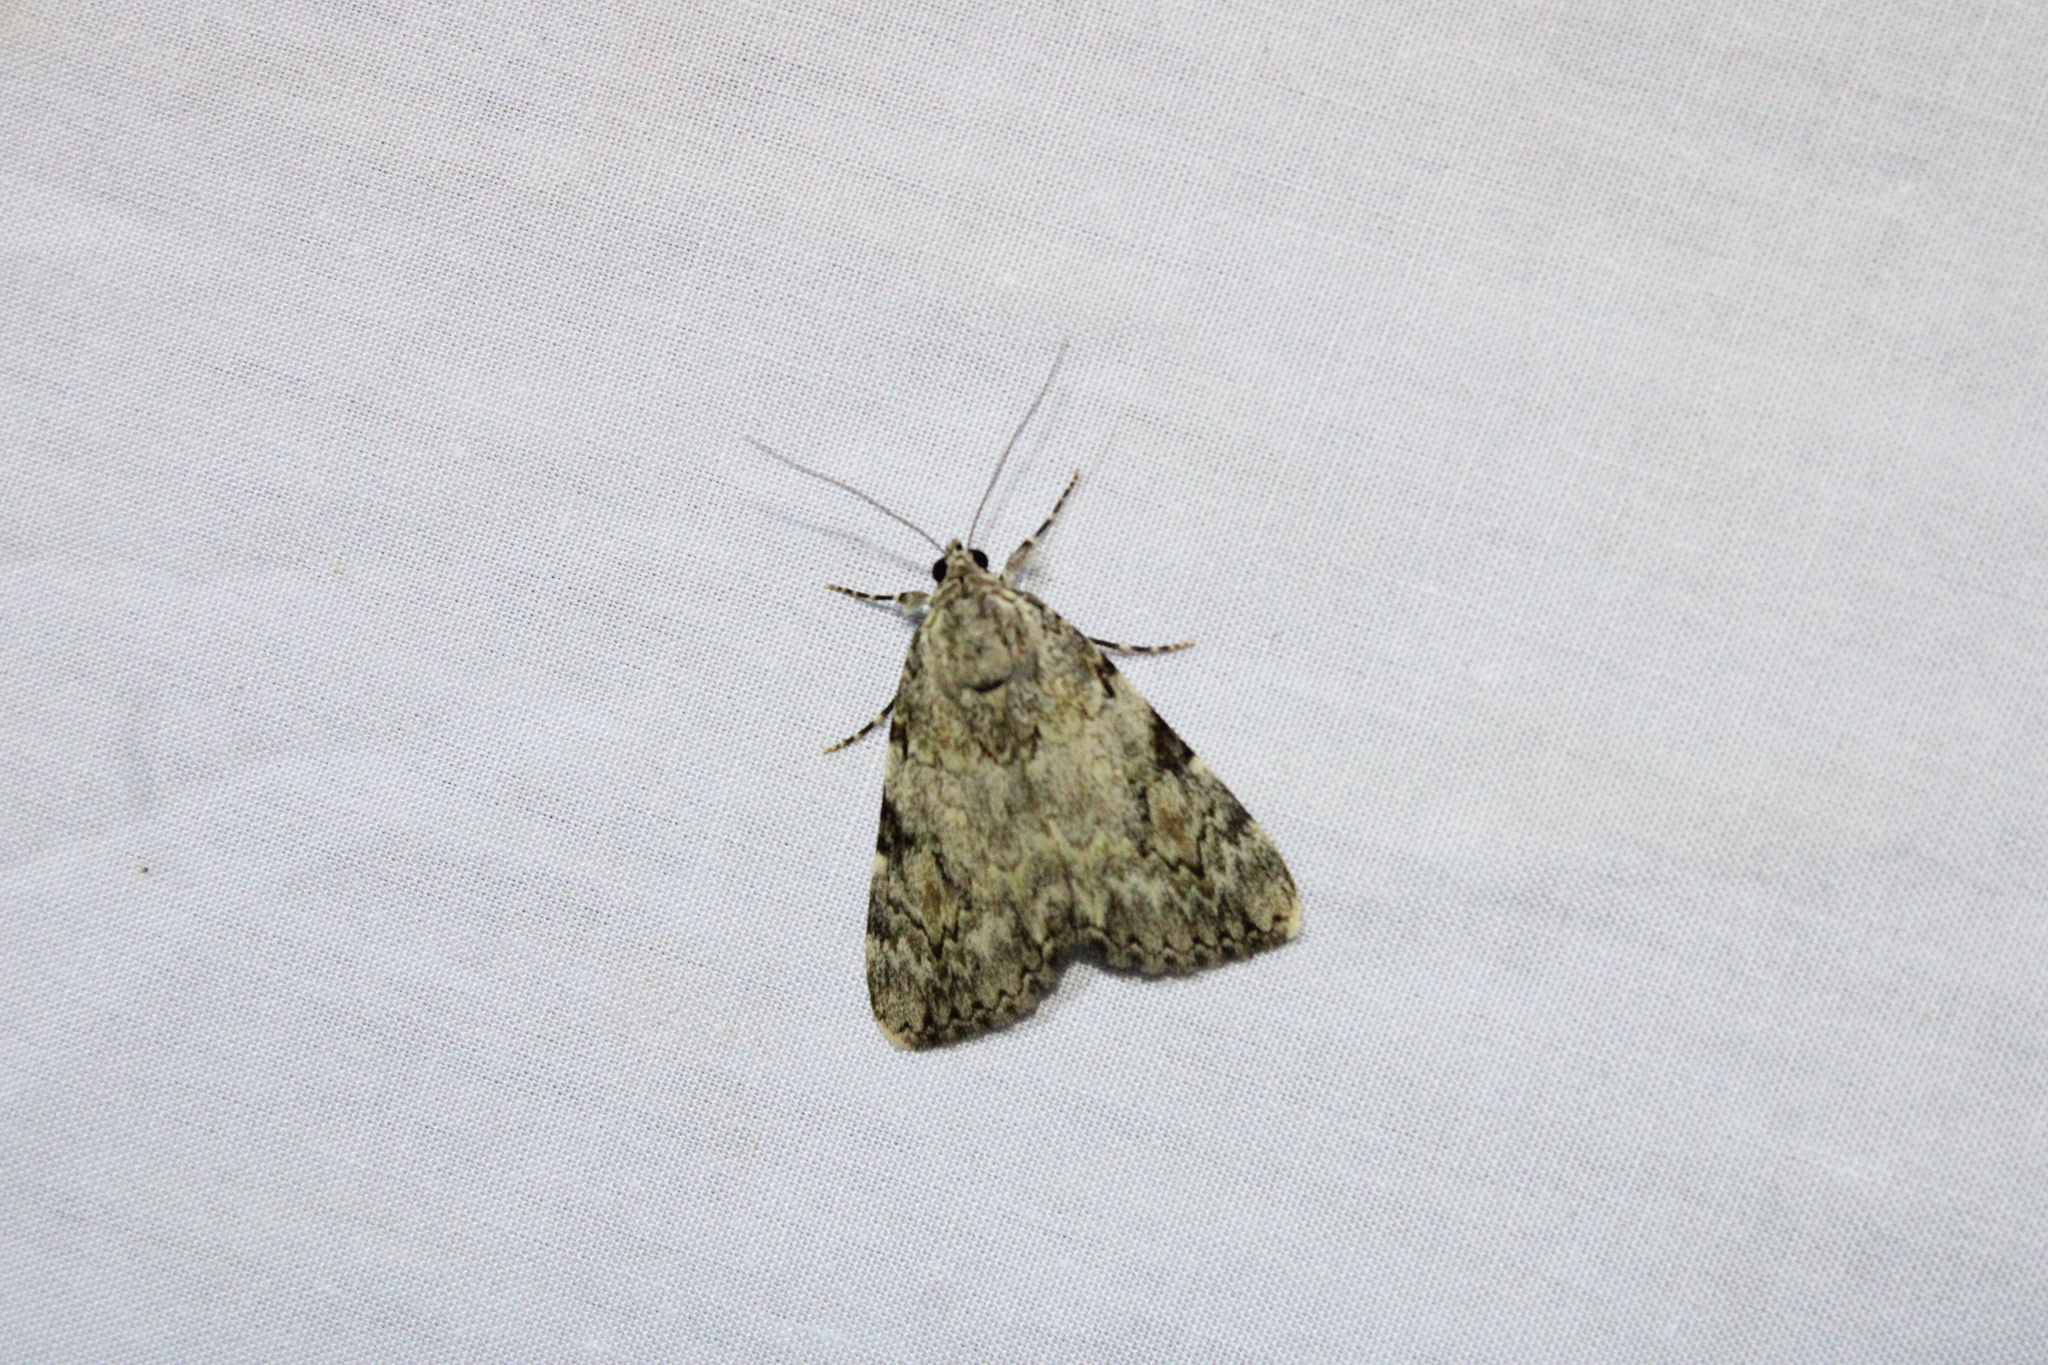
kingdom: Animalia
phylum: Arthropoda
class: Insecta
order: Lepidoptera
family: Erebidae
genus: Catocala
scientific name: Catocala amica
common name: Girlfriend underwing
